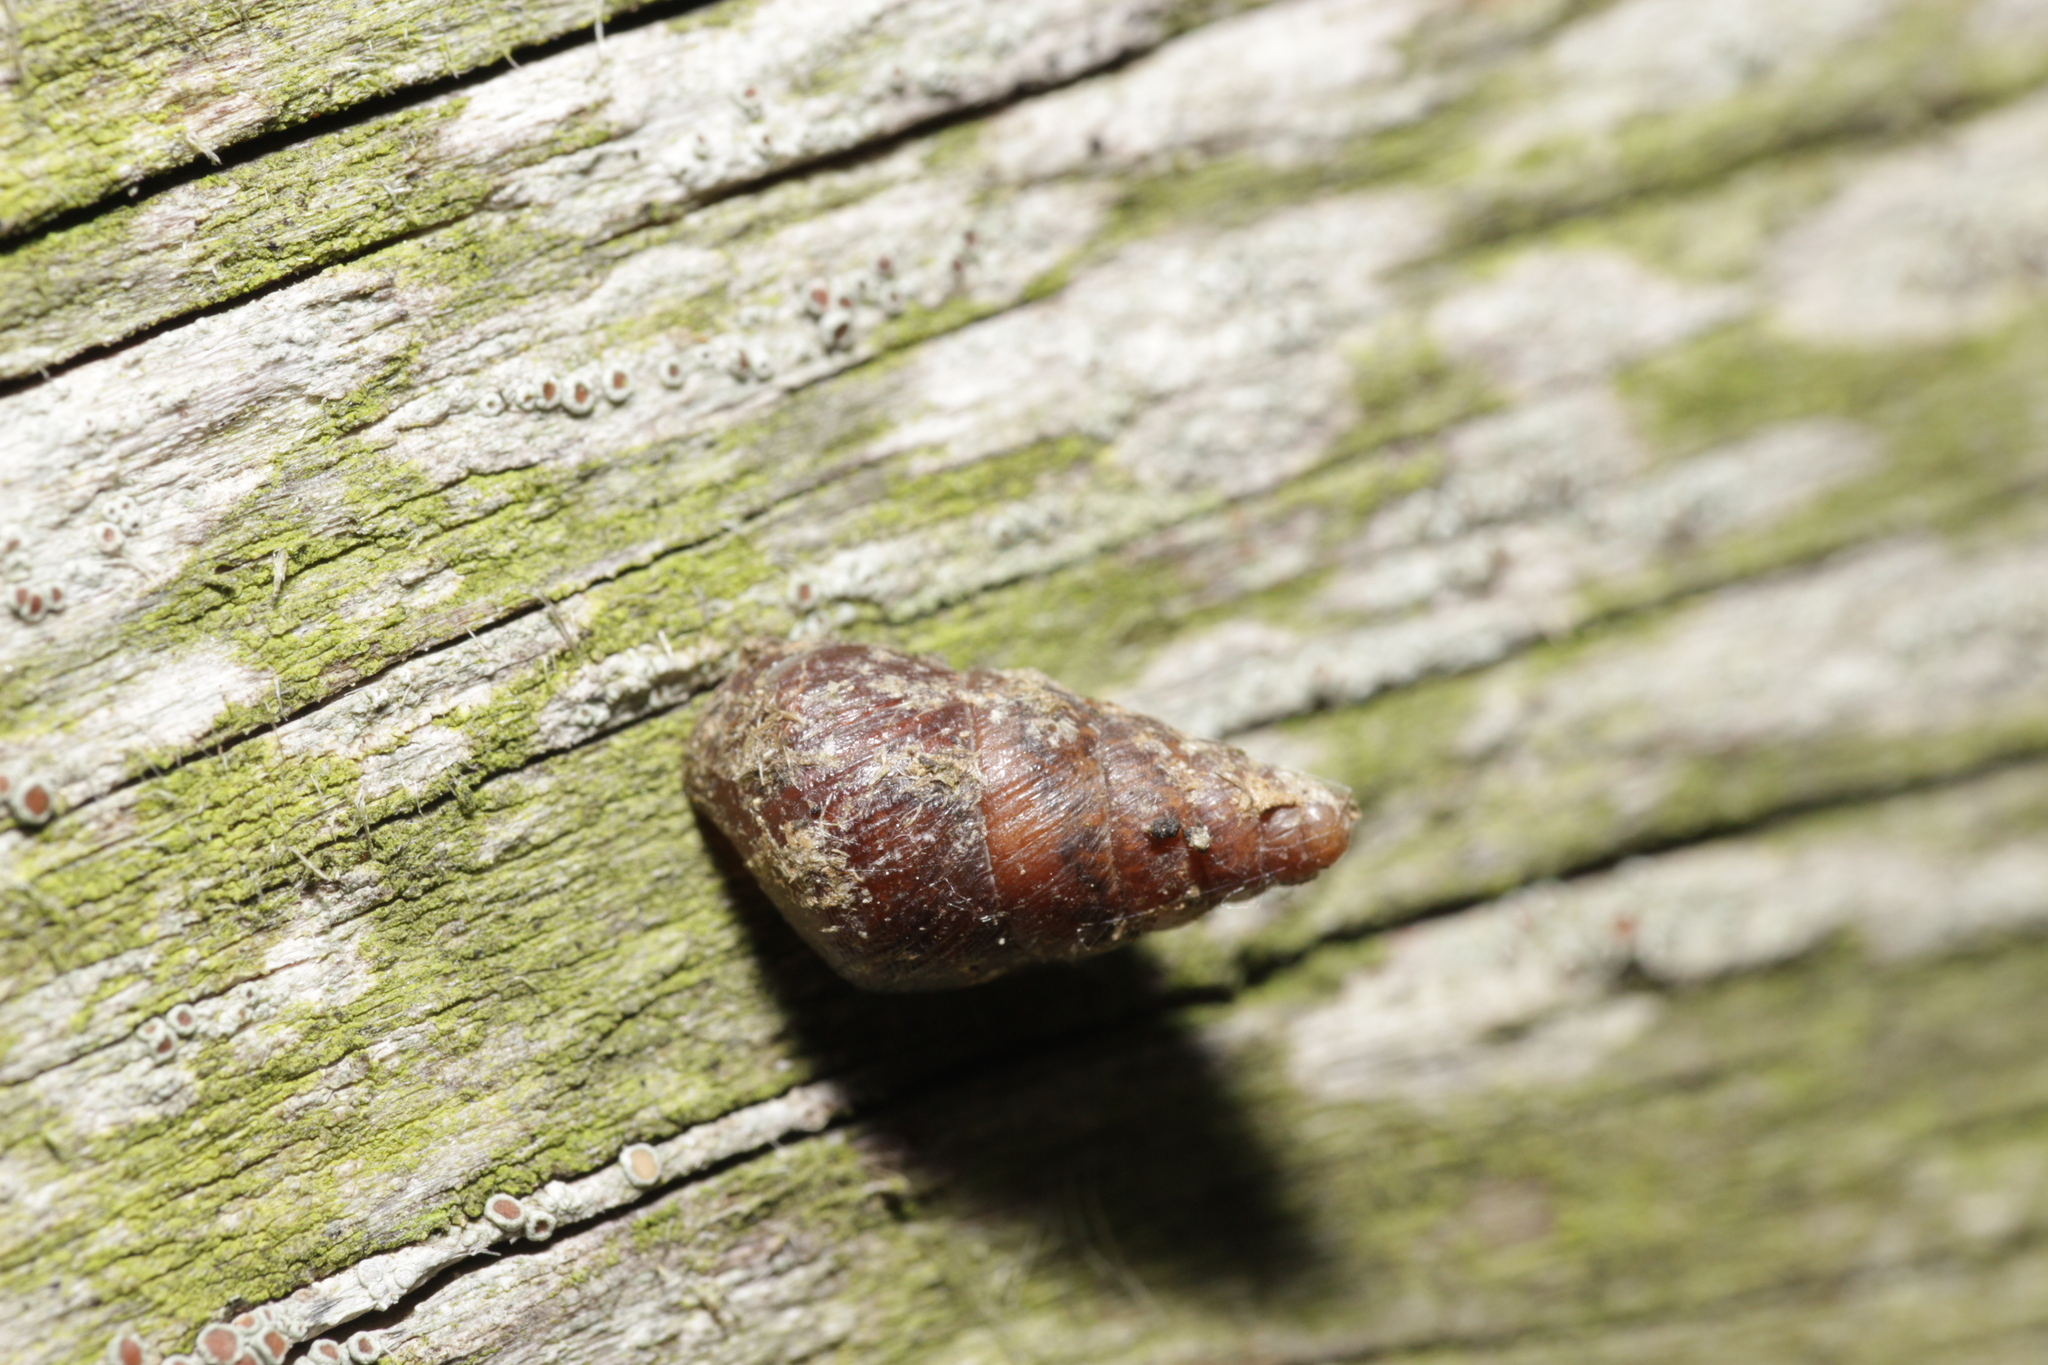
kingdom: Animalia
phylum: Mollusca
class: Gastropoda
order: Stylommatophora
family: Enidae
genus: Ena
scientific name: Ena montana
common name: Mountain bulin
